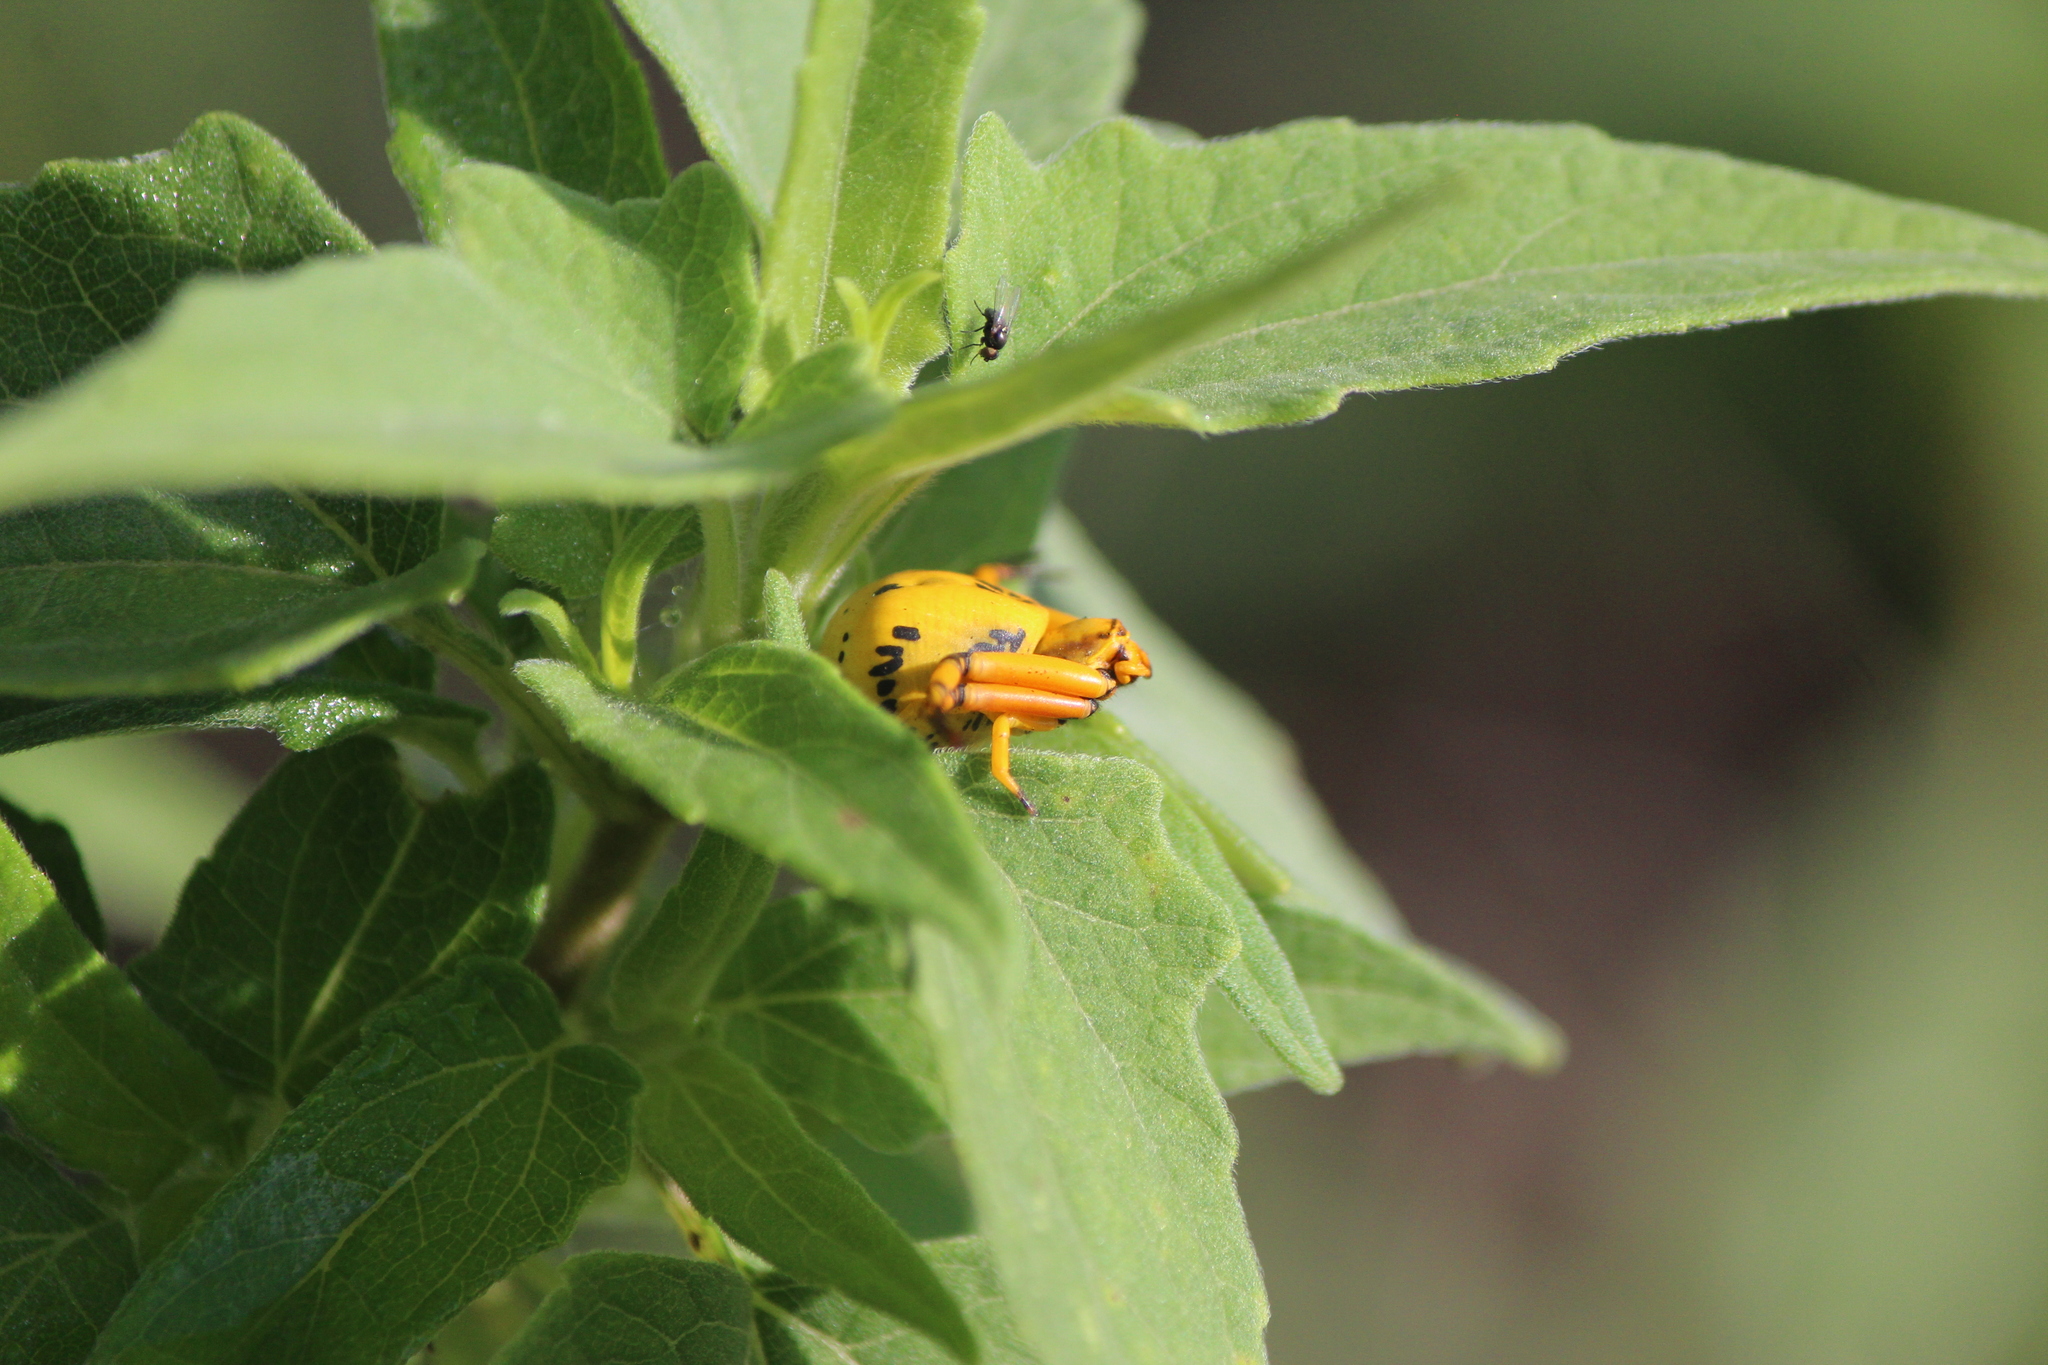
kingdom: Animalia
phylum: Arthropoda
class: Arachnida
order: Araneae
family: Thomisidae
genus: Misumenoides
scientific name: Misumenoides formosipes
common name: White-banded crab spider
